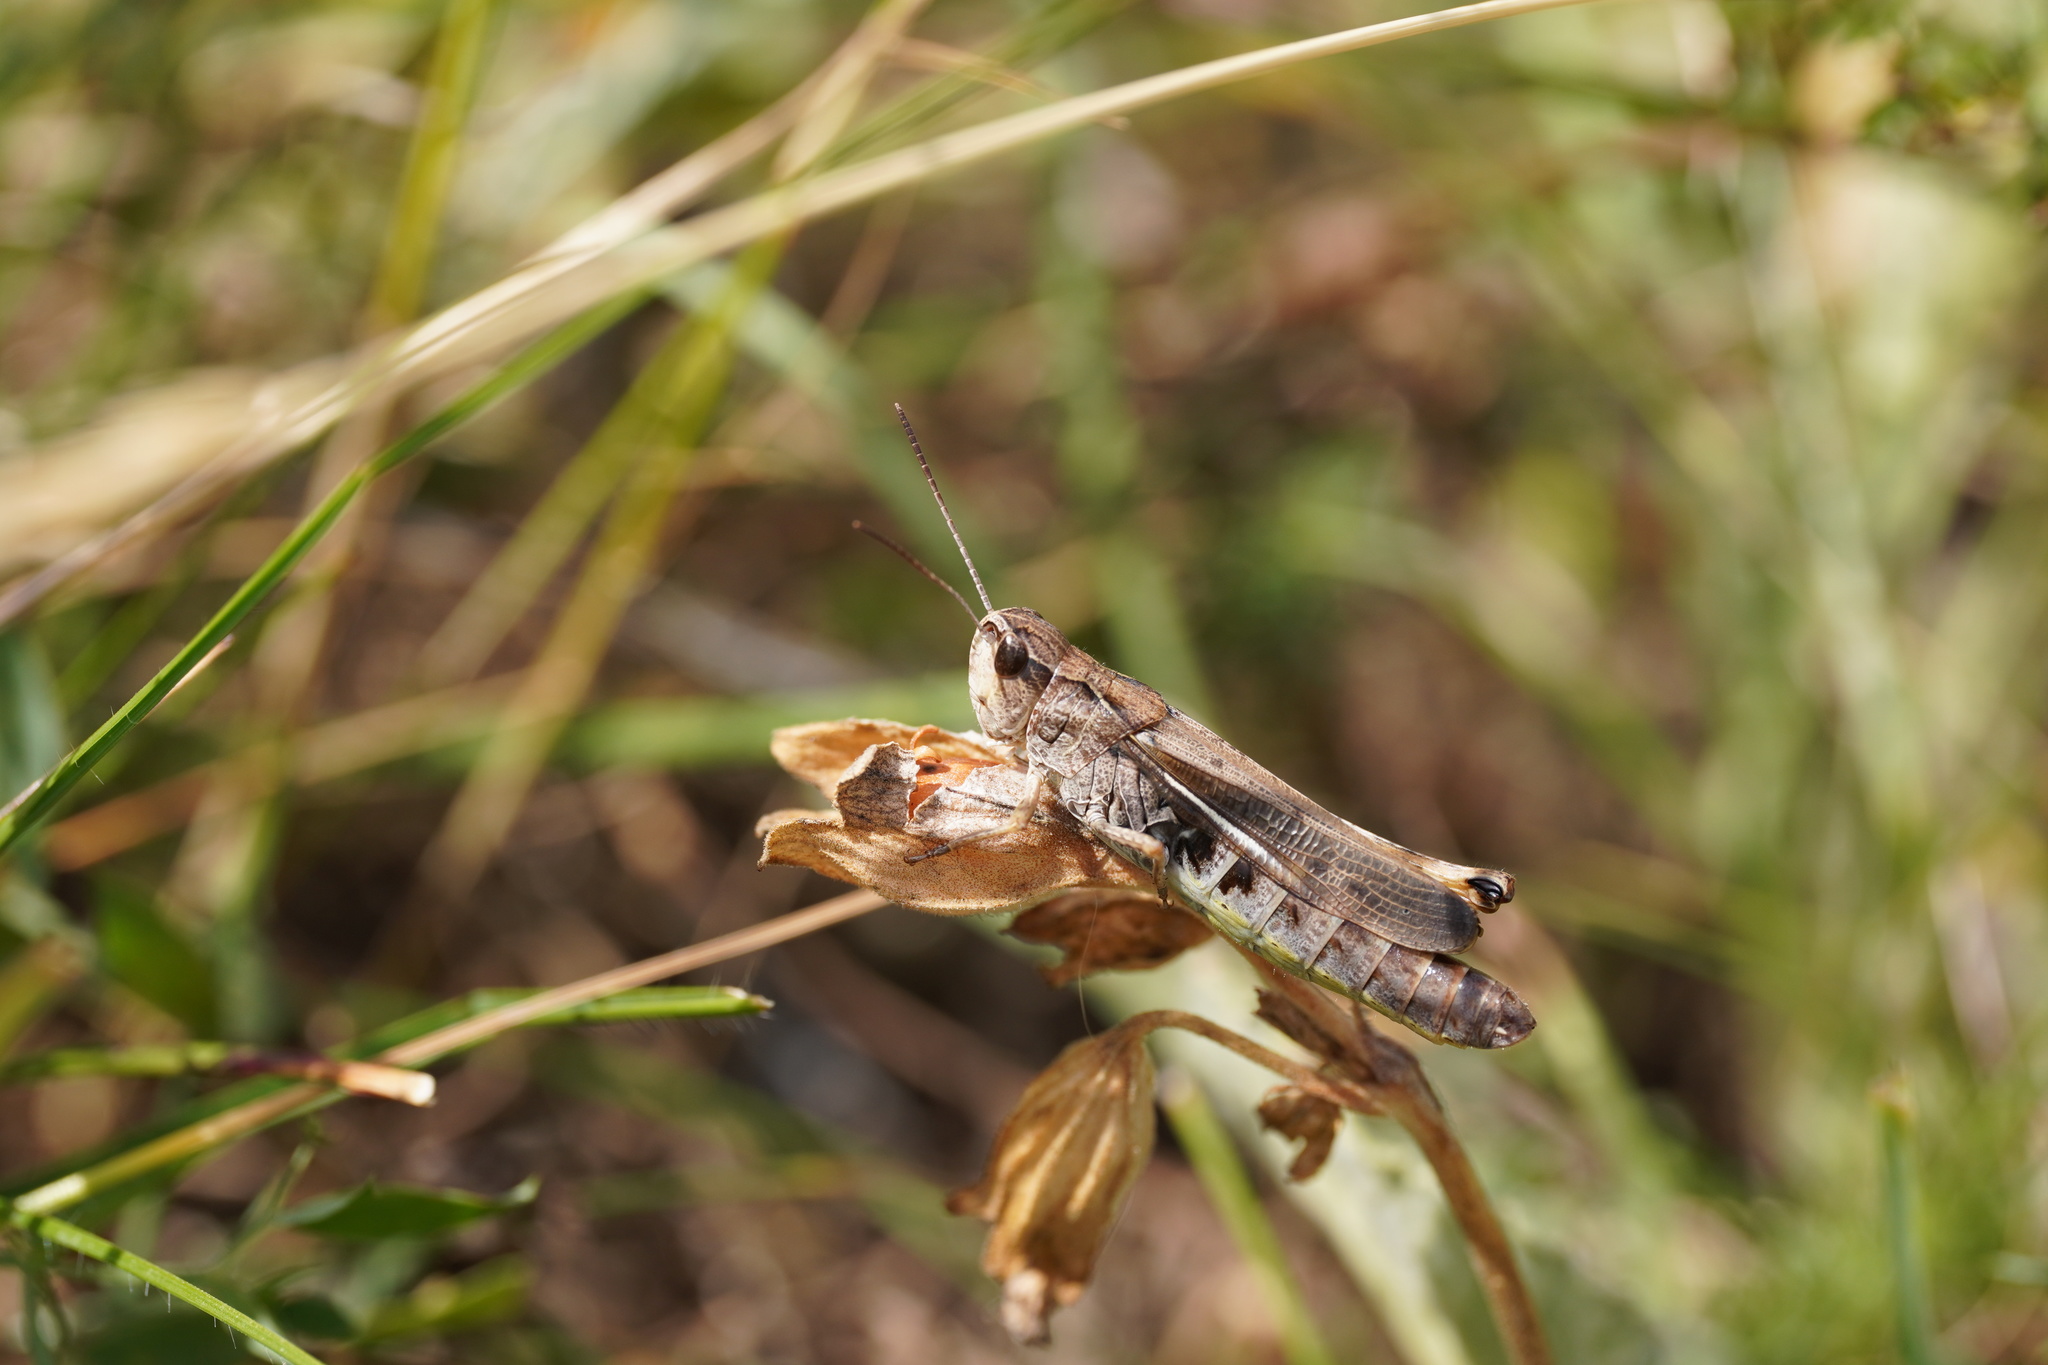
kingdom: Animalia
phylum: Arthropoda
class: Insecta
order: Orthoptera
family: Acrididae
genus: Stauroderus
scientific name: Stauroderus scalaris
